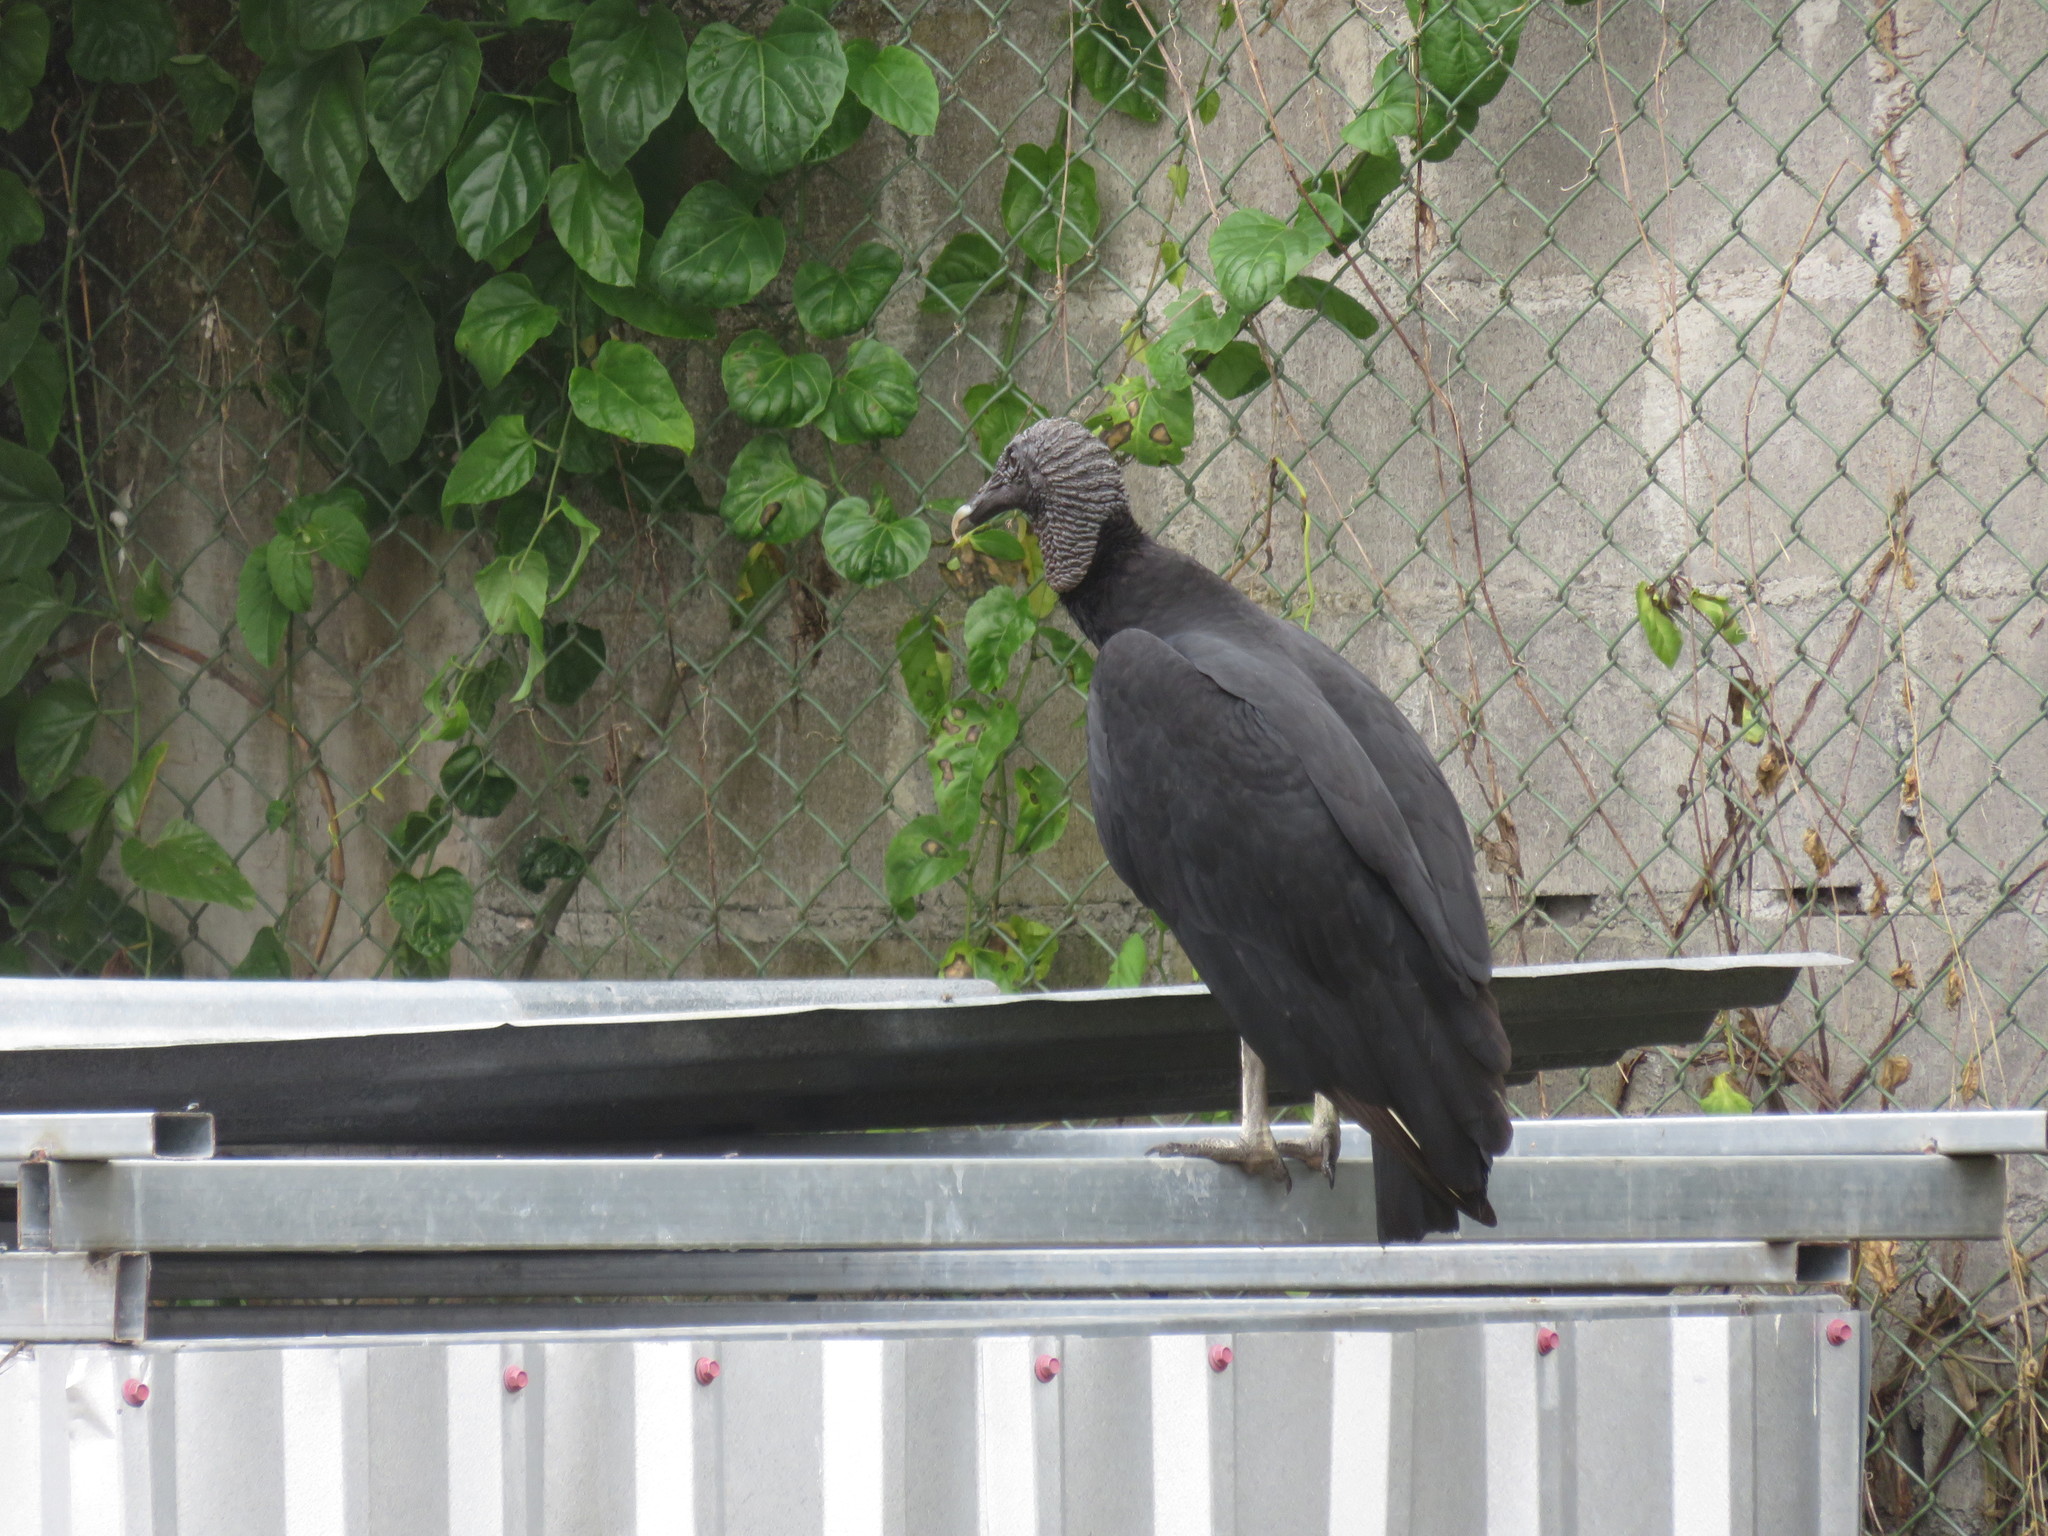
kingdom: Animalia
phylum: Chordata
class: Aves
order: Accipitriformes
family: Cathartidae
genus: Coragyps
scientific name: Coragyps atratus
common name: Black vulture
